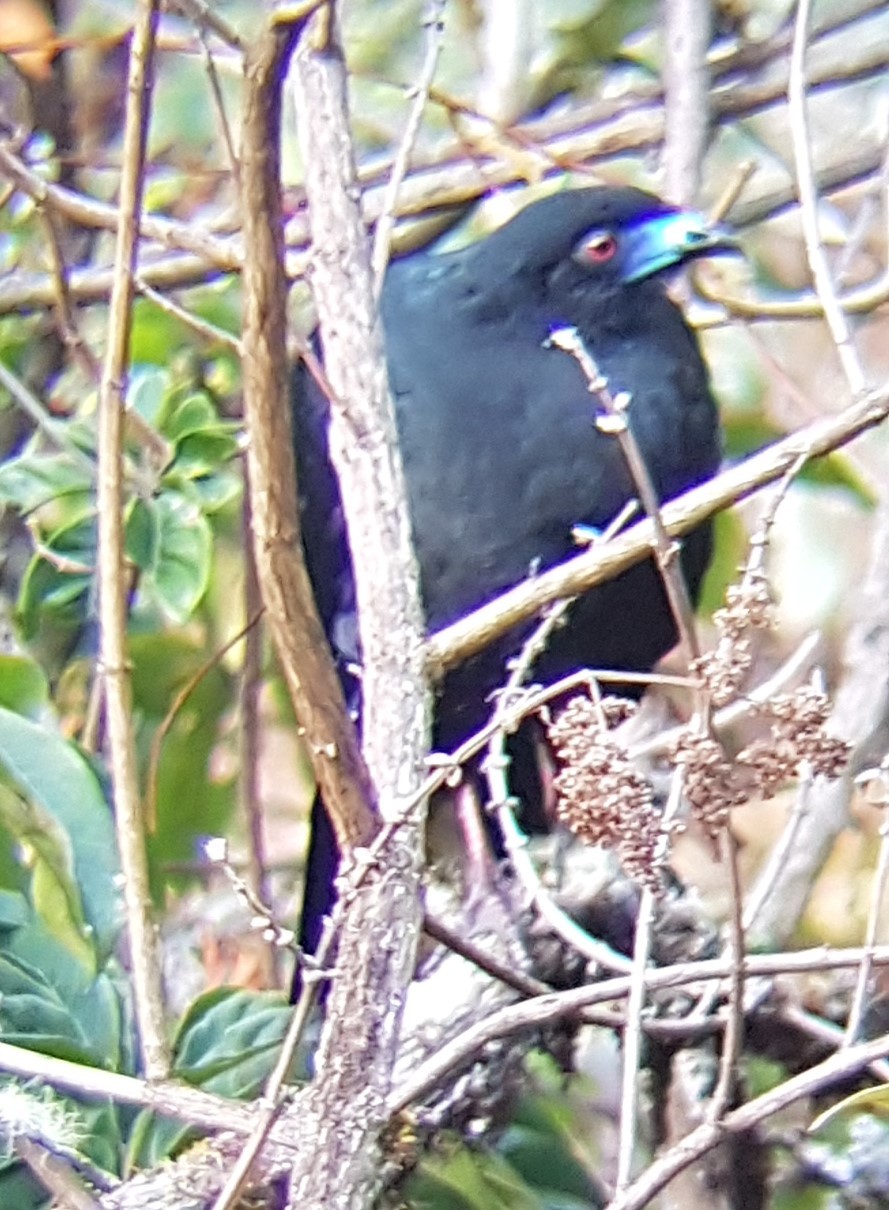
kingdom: Animalia
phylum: Chordata
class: Aves
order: Galliformes
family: Cracidae
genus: Chamaepetes
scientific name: Chamaepetes unicolor
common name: Black guan
